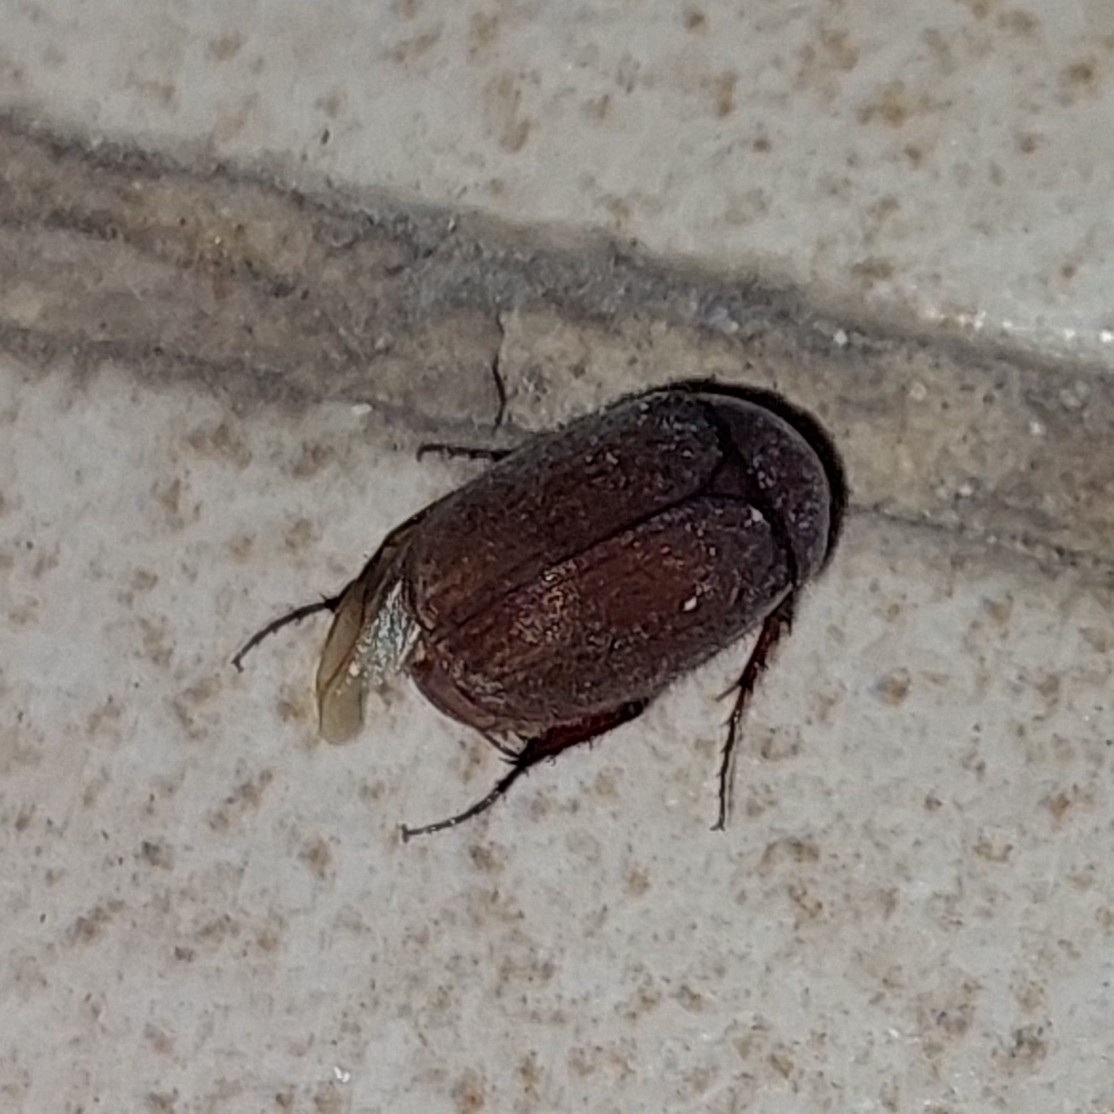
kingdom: Animalia
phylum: Arthropoda
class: Insecta
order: Coleoptera
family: Scarabaeidae
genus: Maladera
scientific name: Maladera insanabilis
